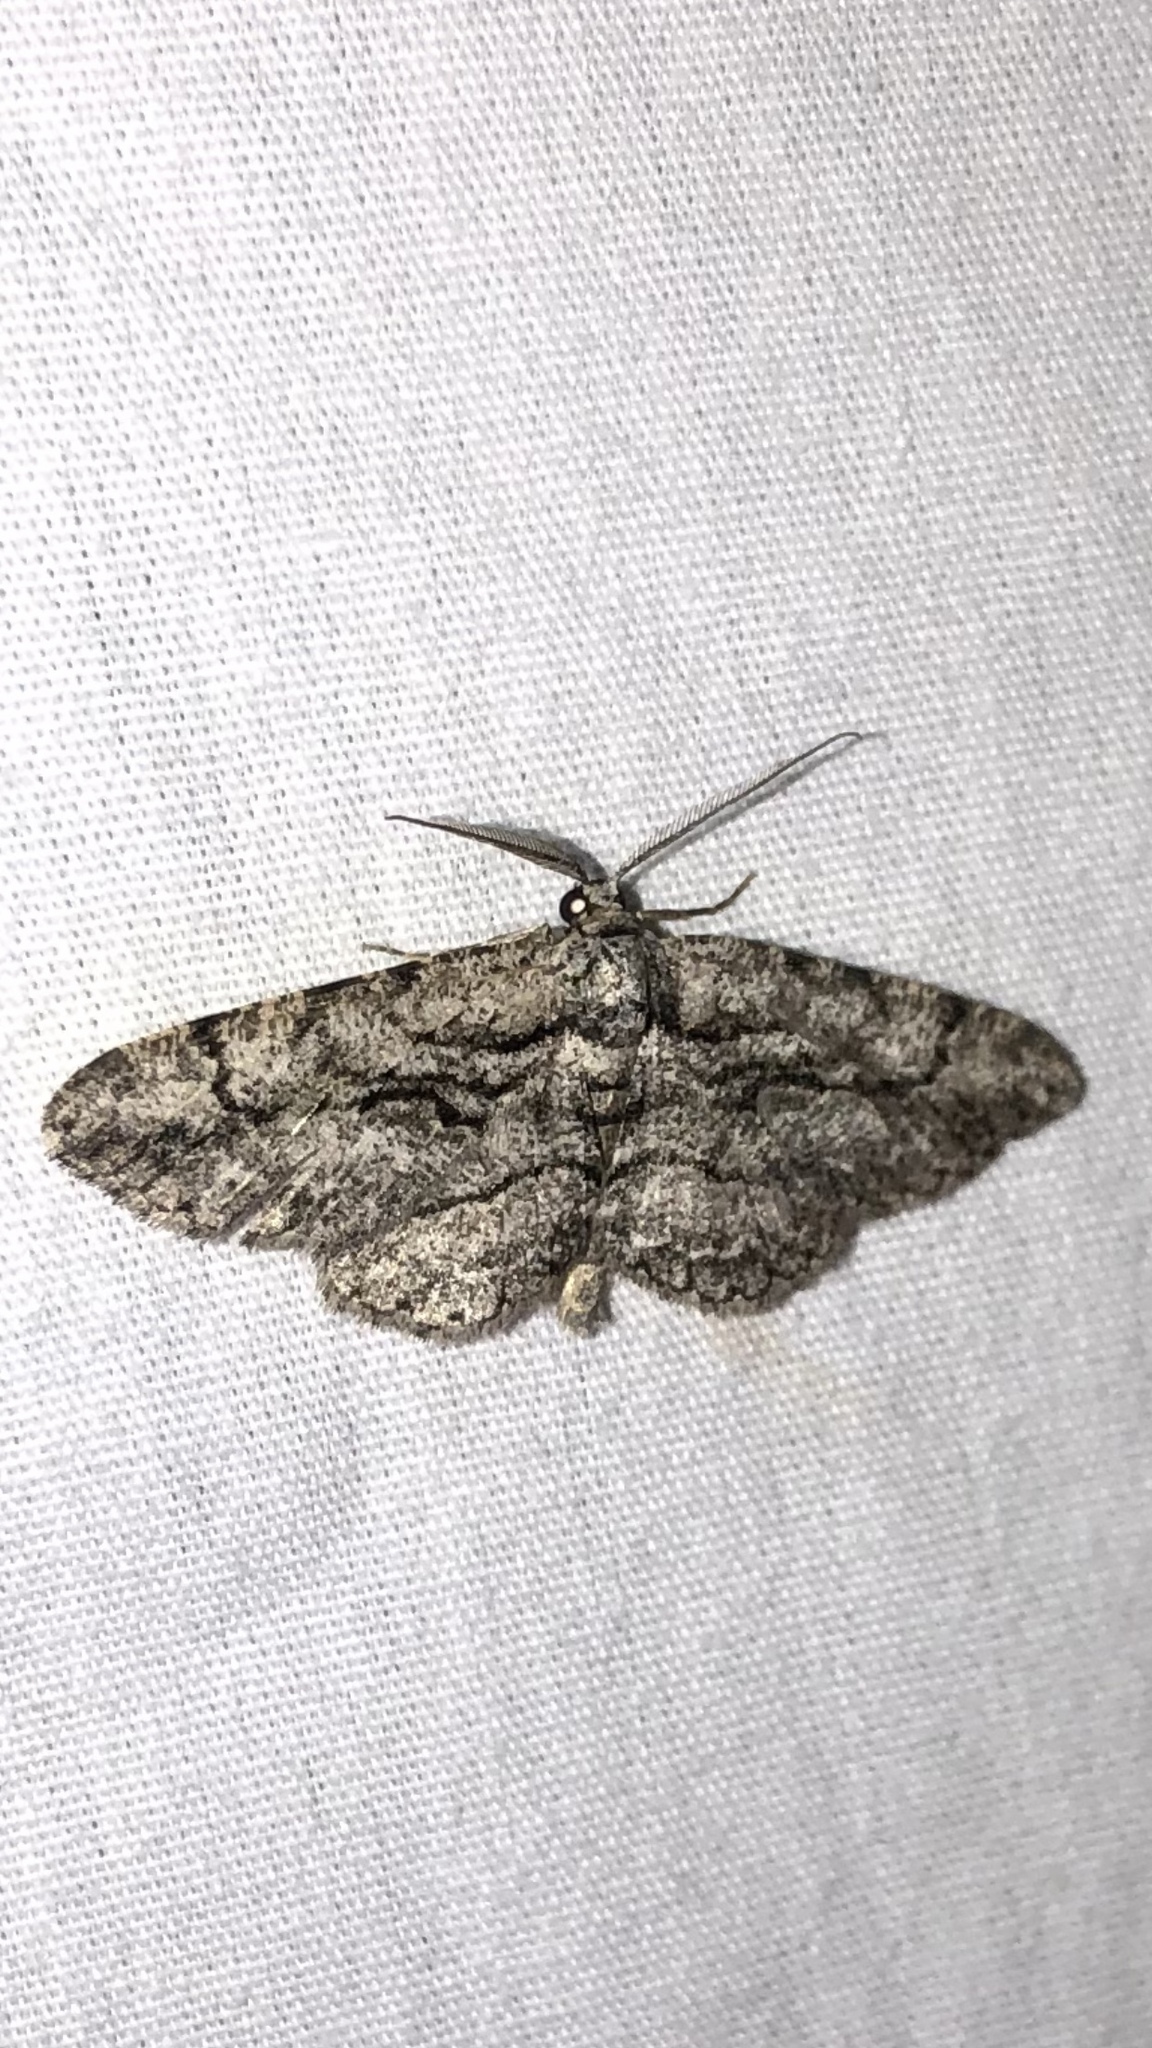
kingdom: Animalia
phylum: Arthropoda
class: Insecta
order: Lepidoptera
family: Geometridae
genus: Anavitrinella
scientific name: Anavitrinella pampinaria
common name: Common gray
